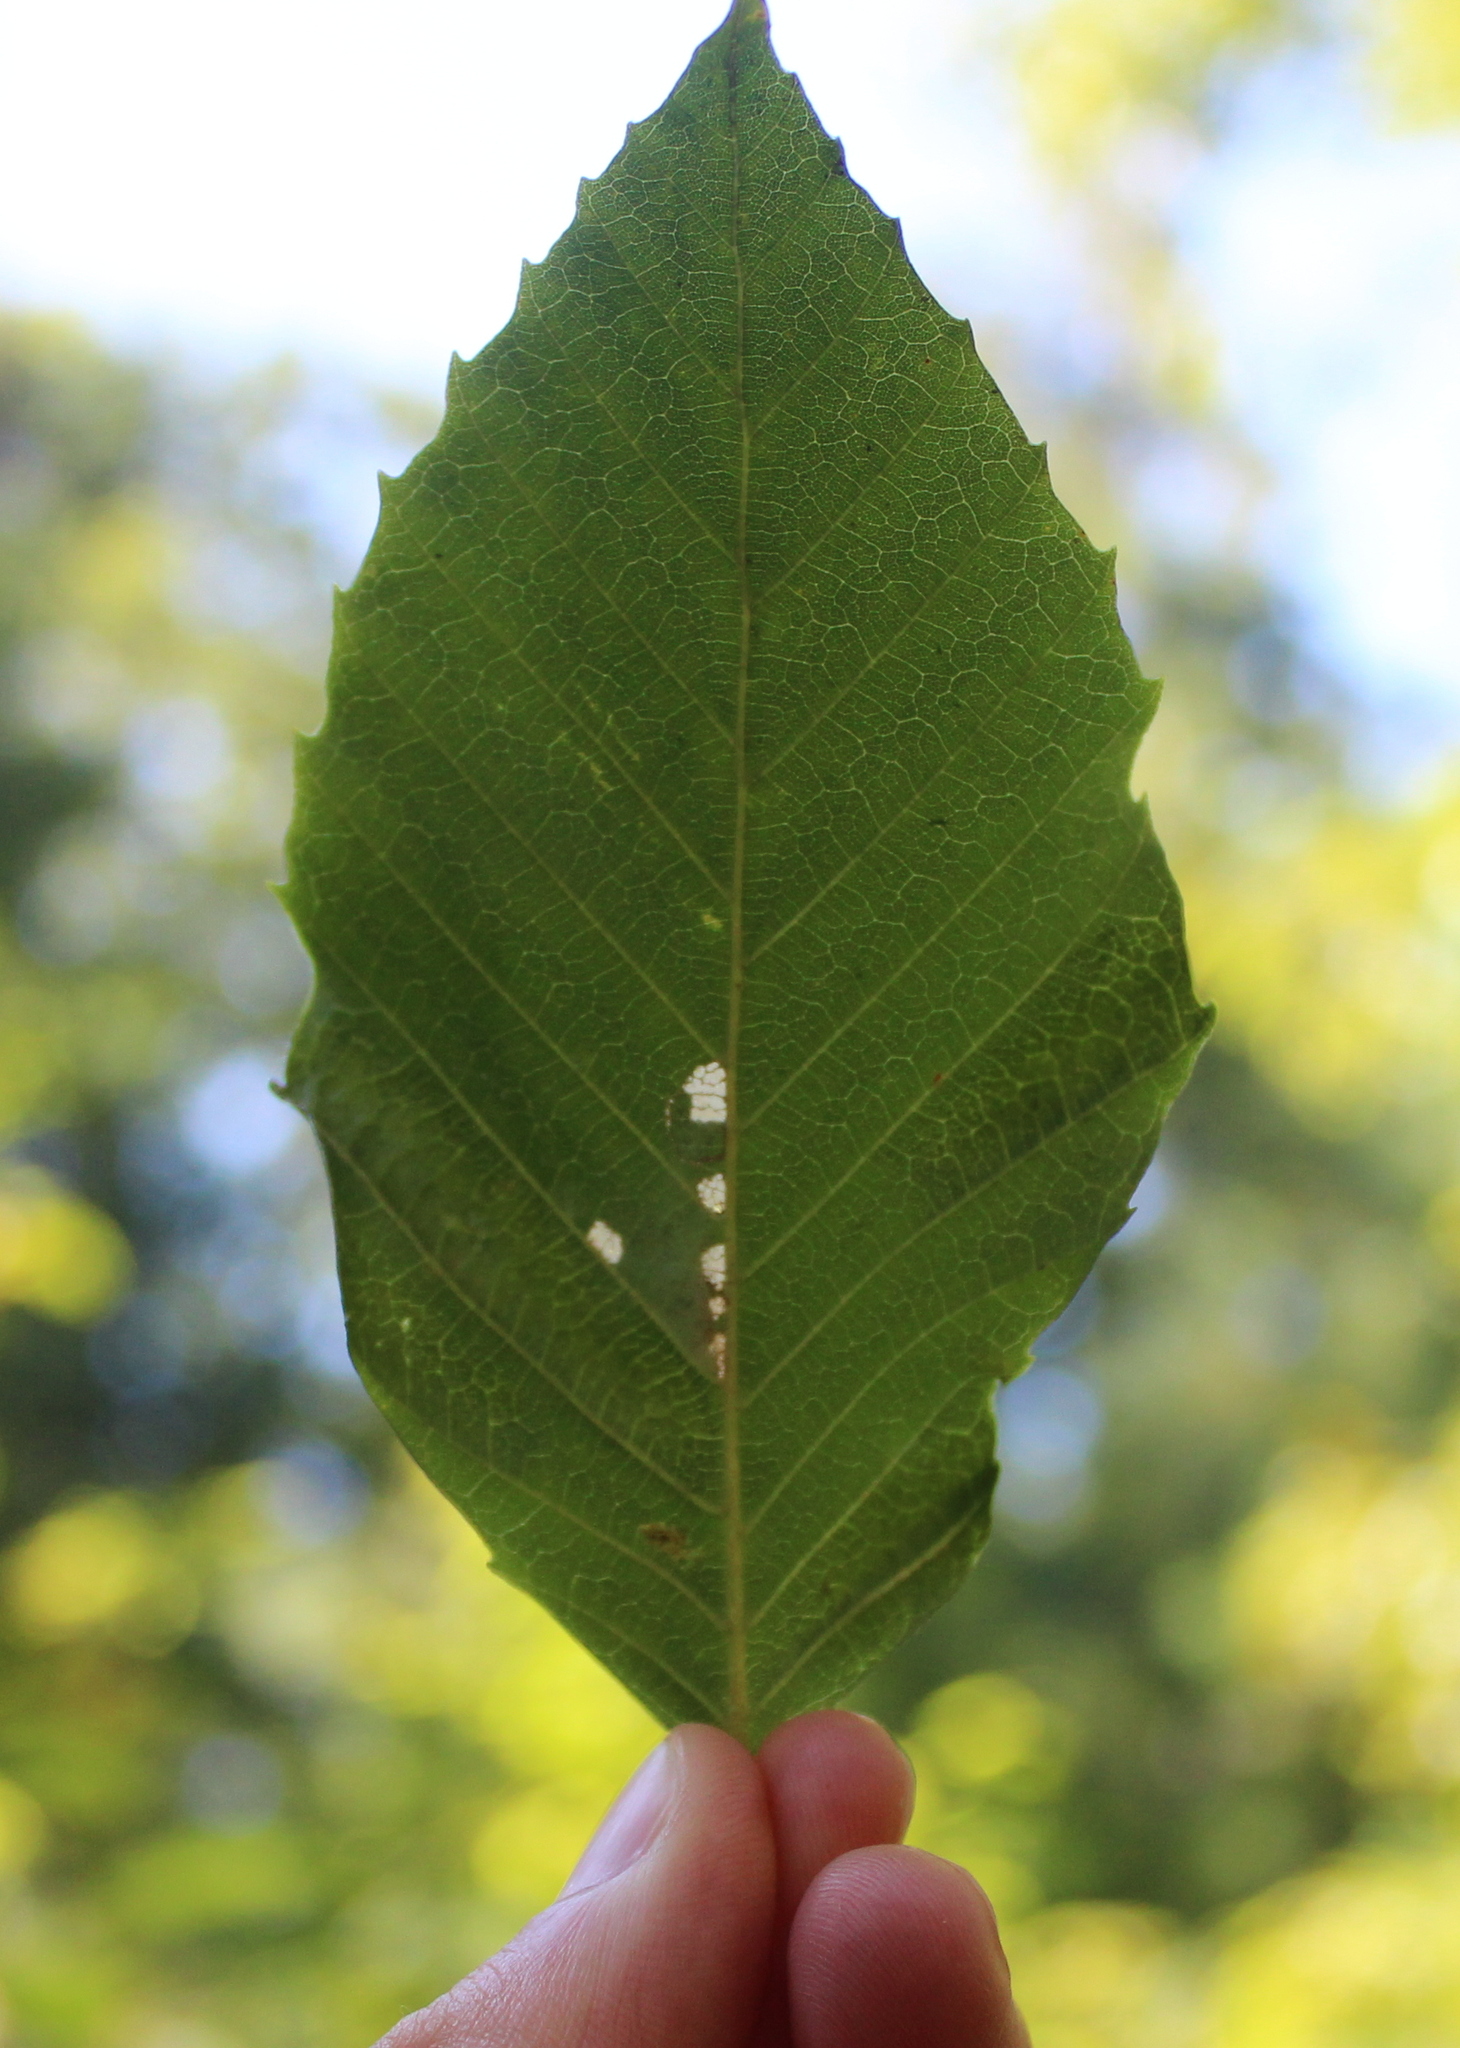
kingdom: Plantae
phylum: Tracheophyta
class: Magnoliopsida
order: Fagales
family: Fagaceae
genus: Fagus
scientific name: Fagus grandifolia
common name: American beech
